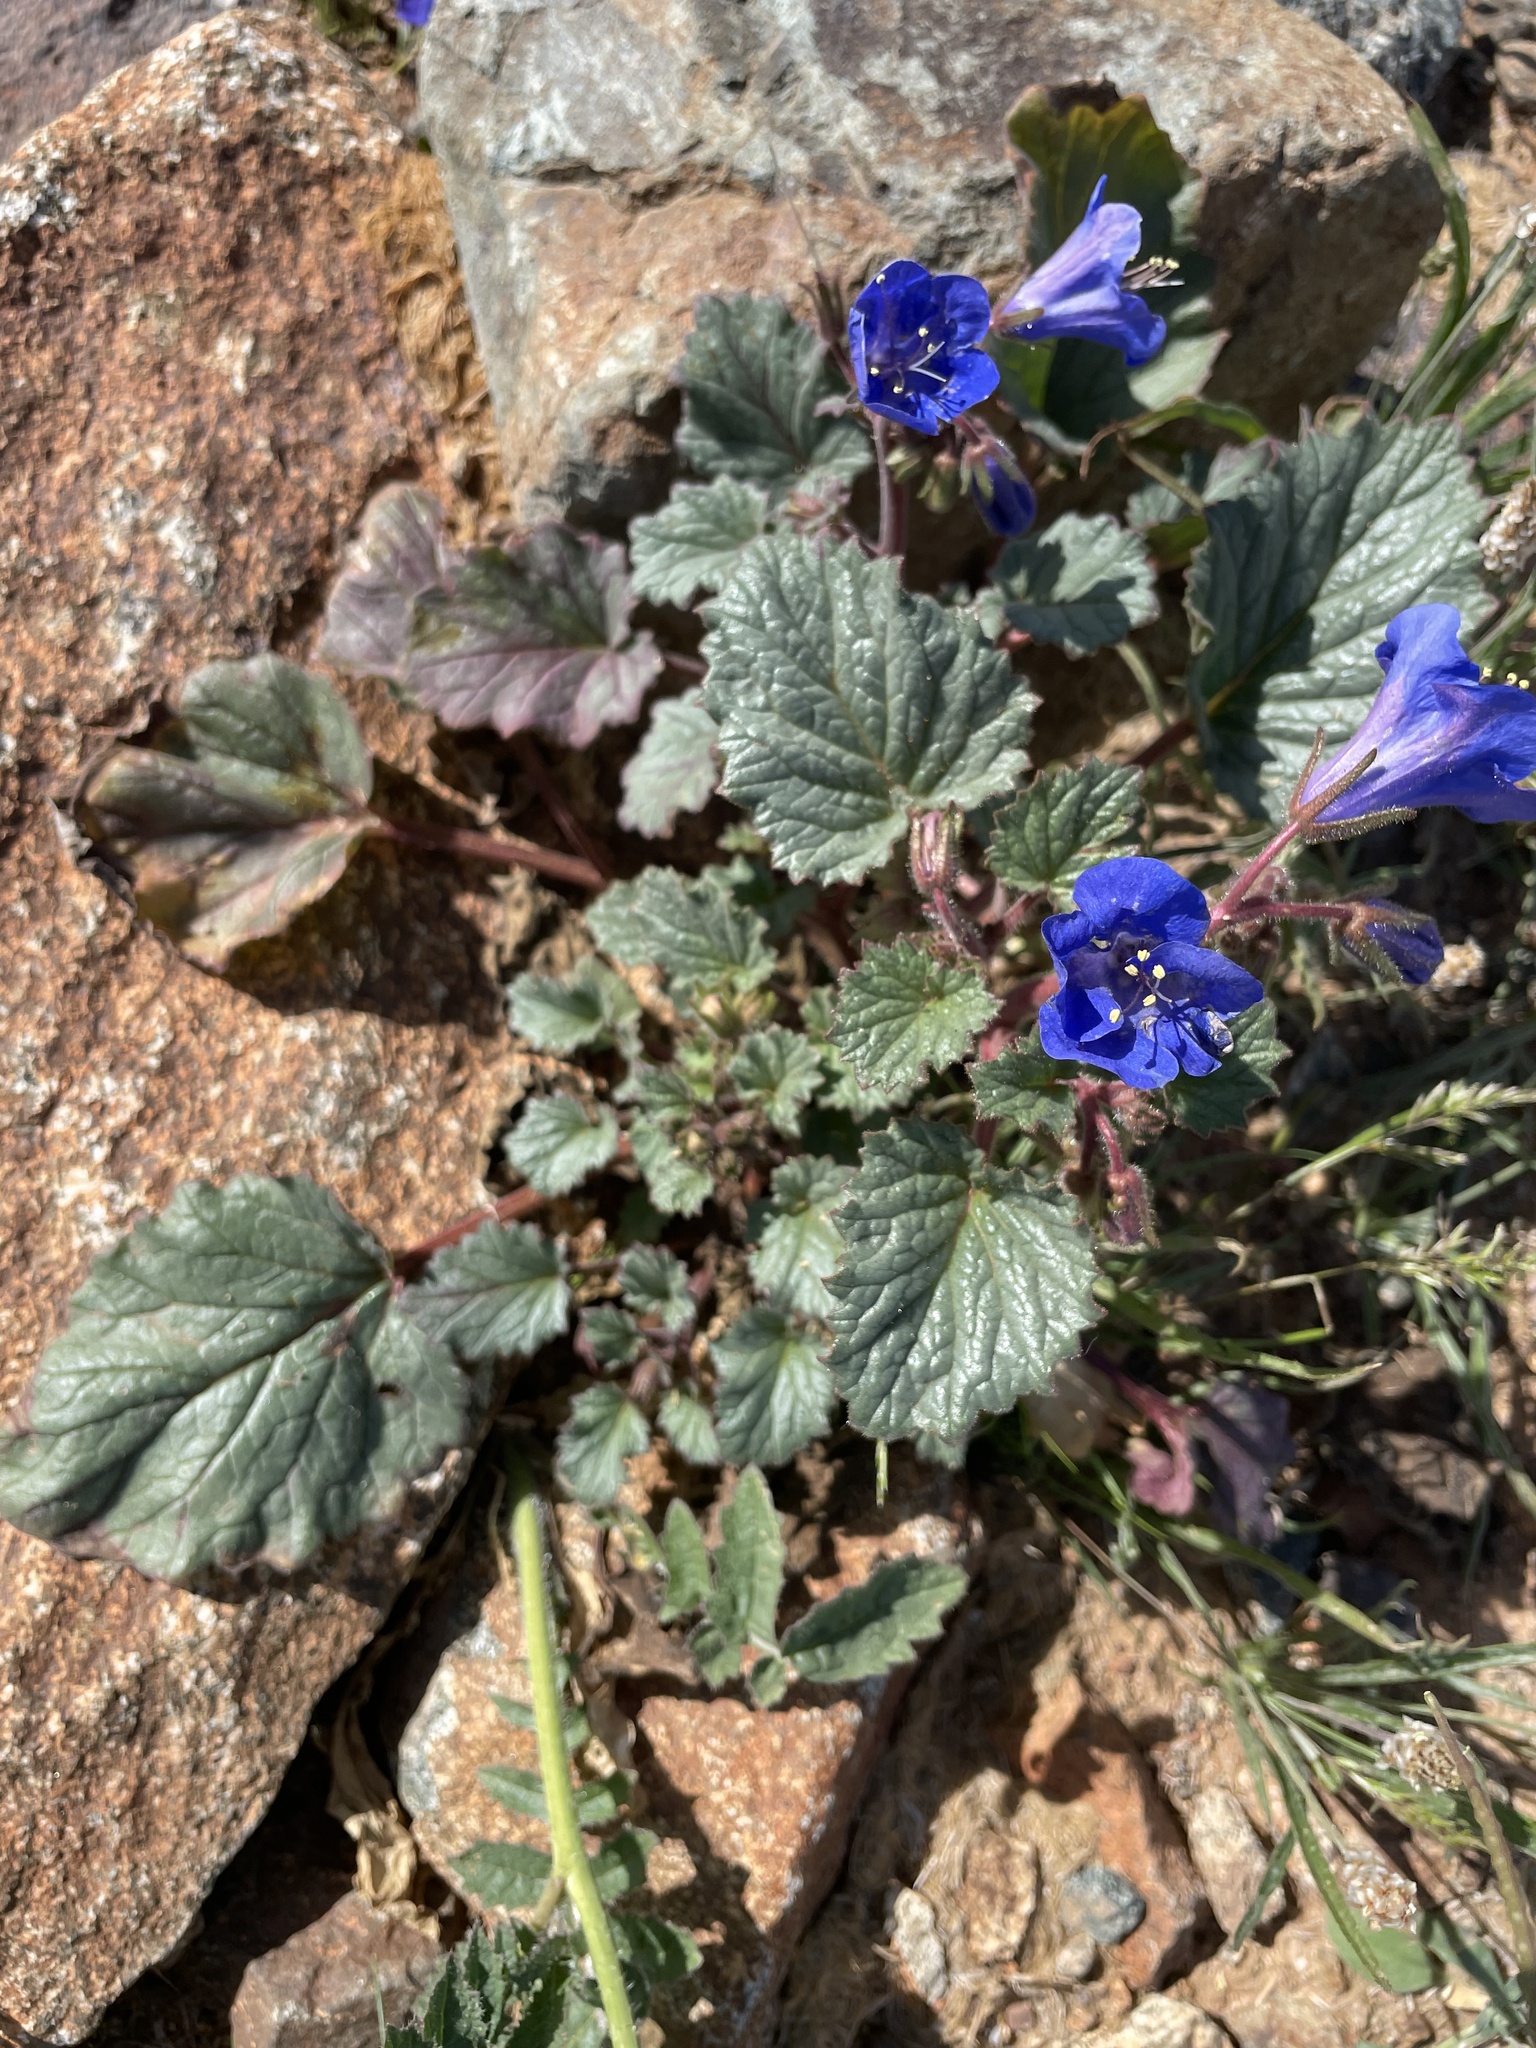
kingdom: Plantae
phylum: Tracheophyta
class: Magnoliopsida
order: Boraginales
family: Hydrophyllaceae
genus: Phacelia
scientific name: Phacelia campanularia
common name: California bluebell
